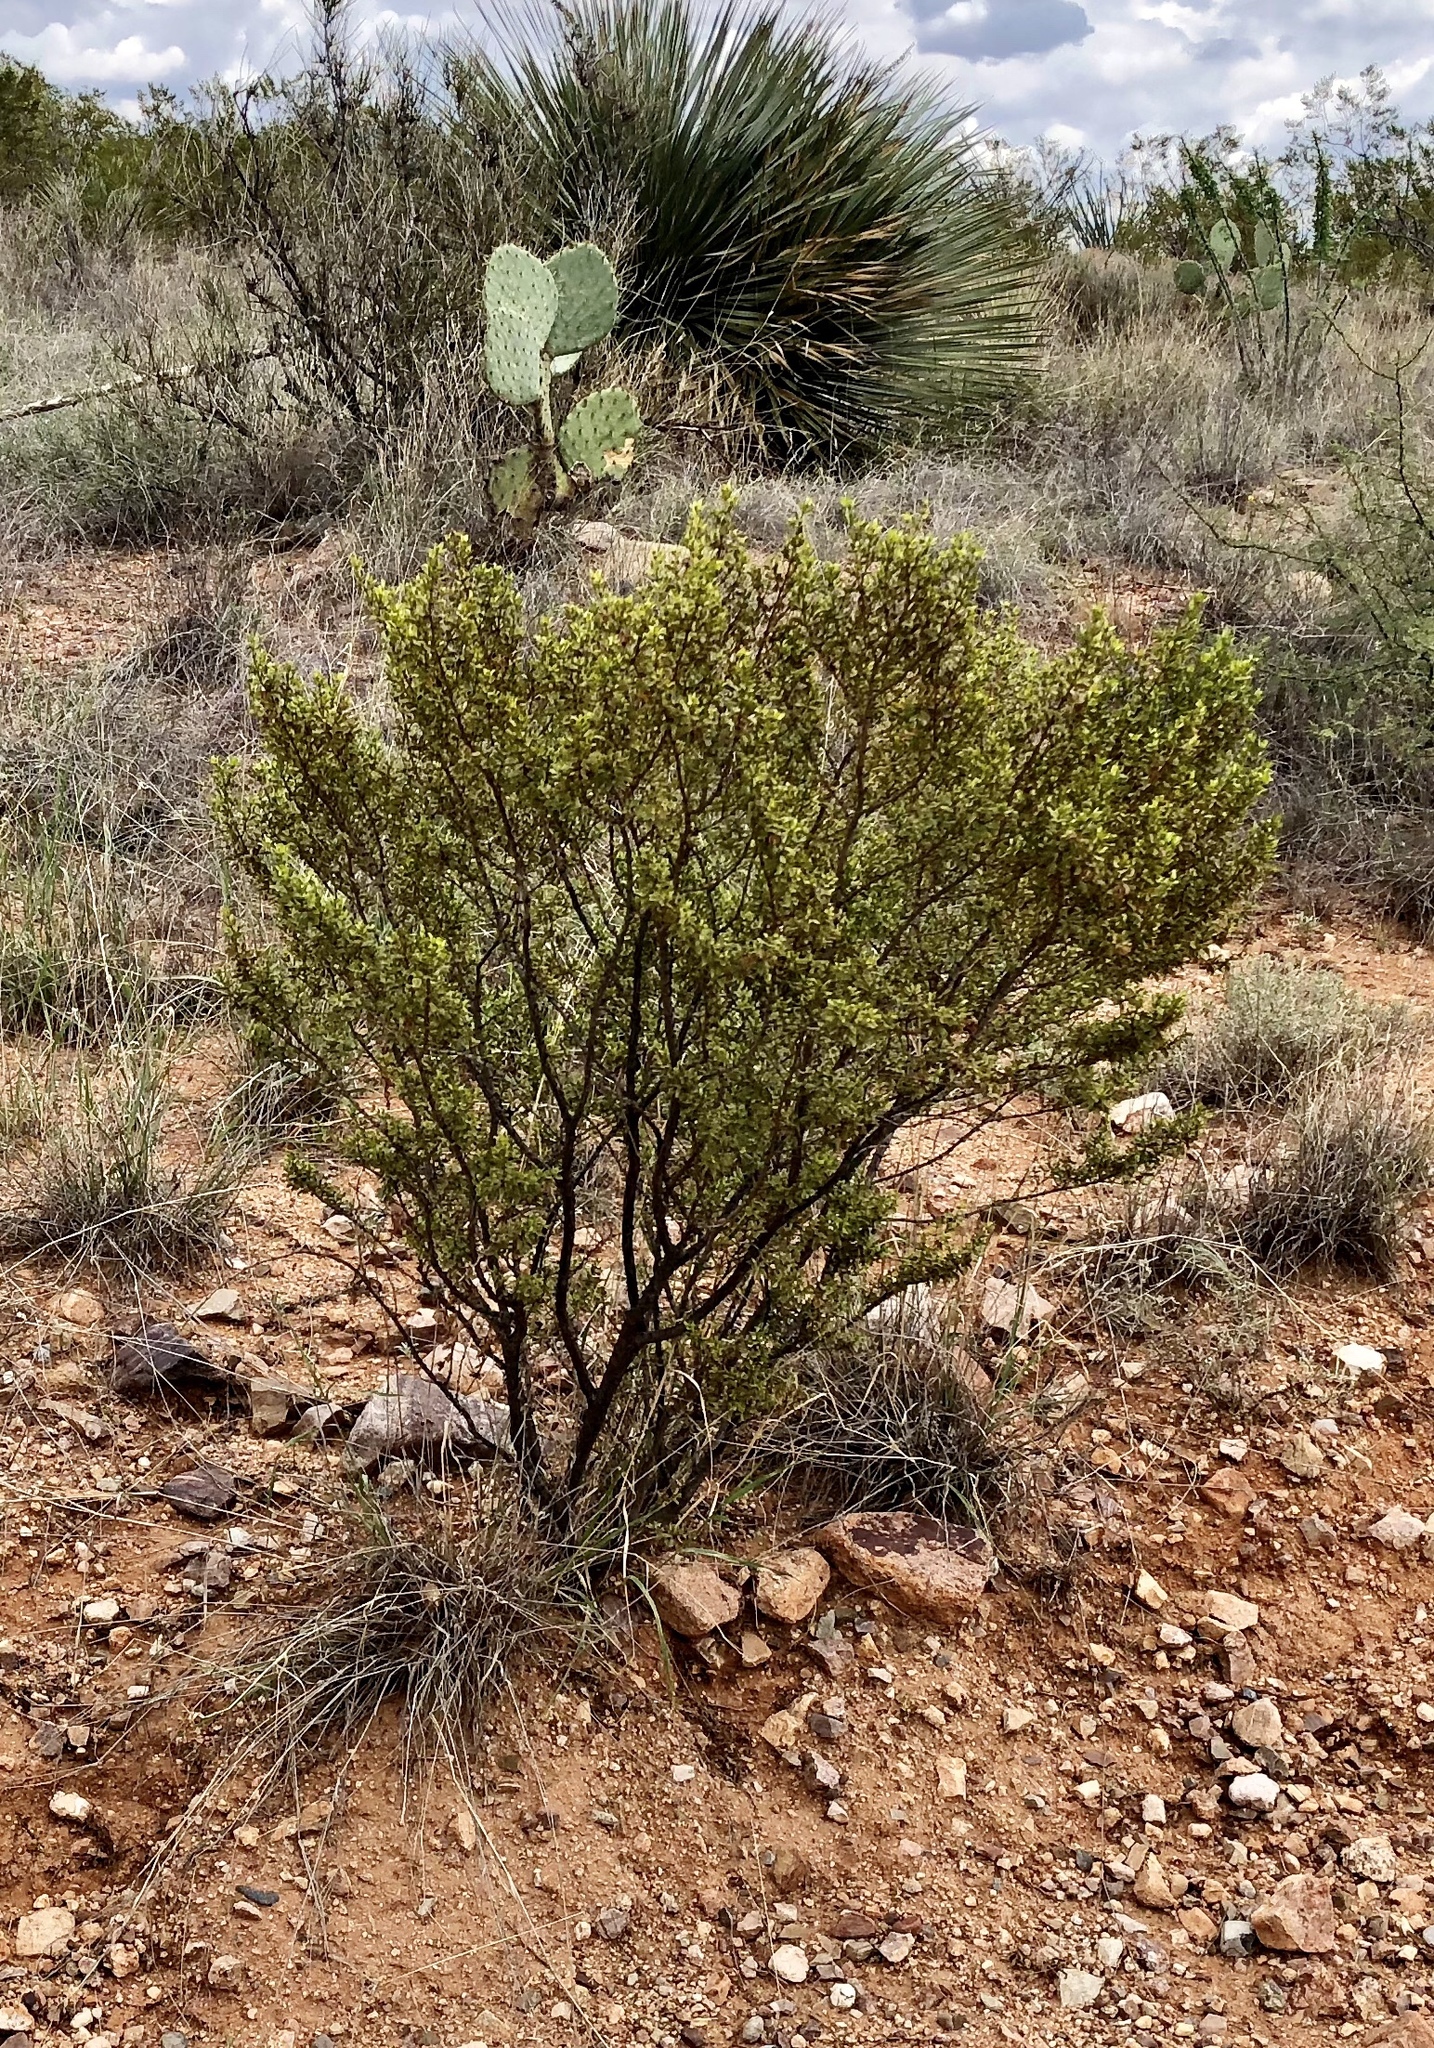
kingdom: Plantae
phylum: Tracheophyta
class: Magnoliopsida
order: Zygophyllales
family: Zygophyllaceae
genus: Larrea
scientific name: Larrea tridentata
